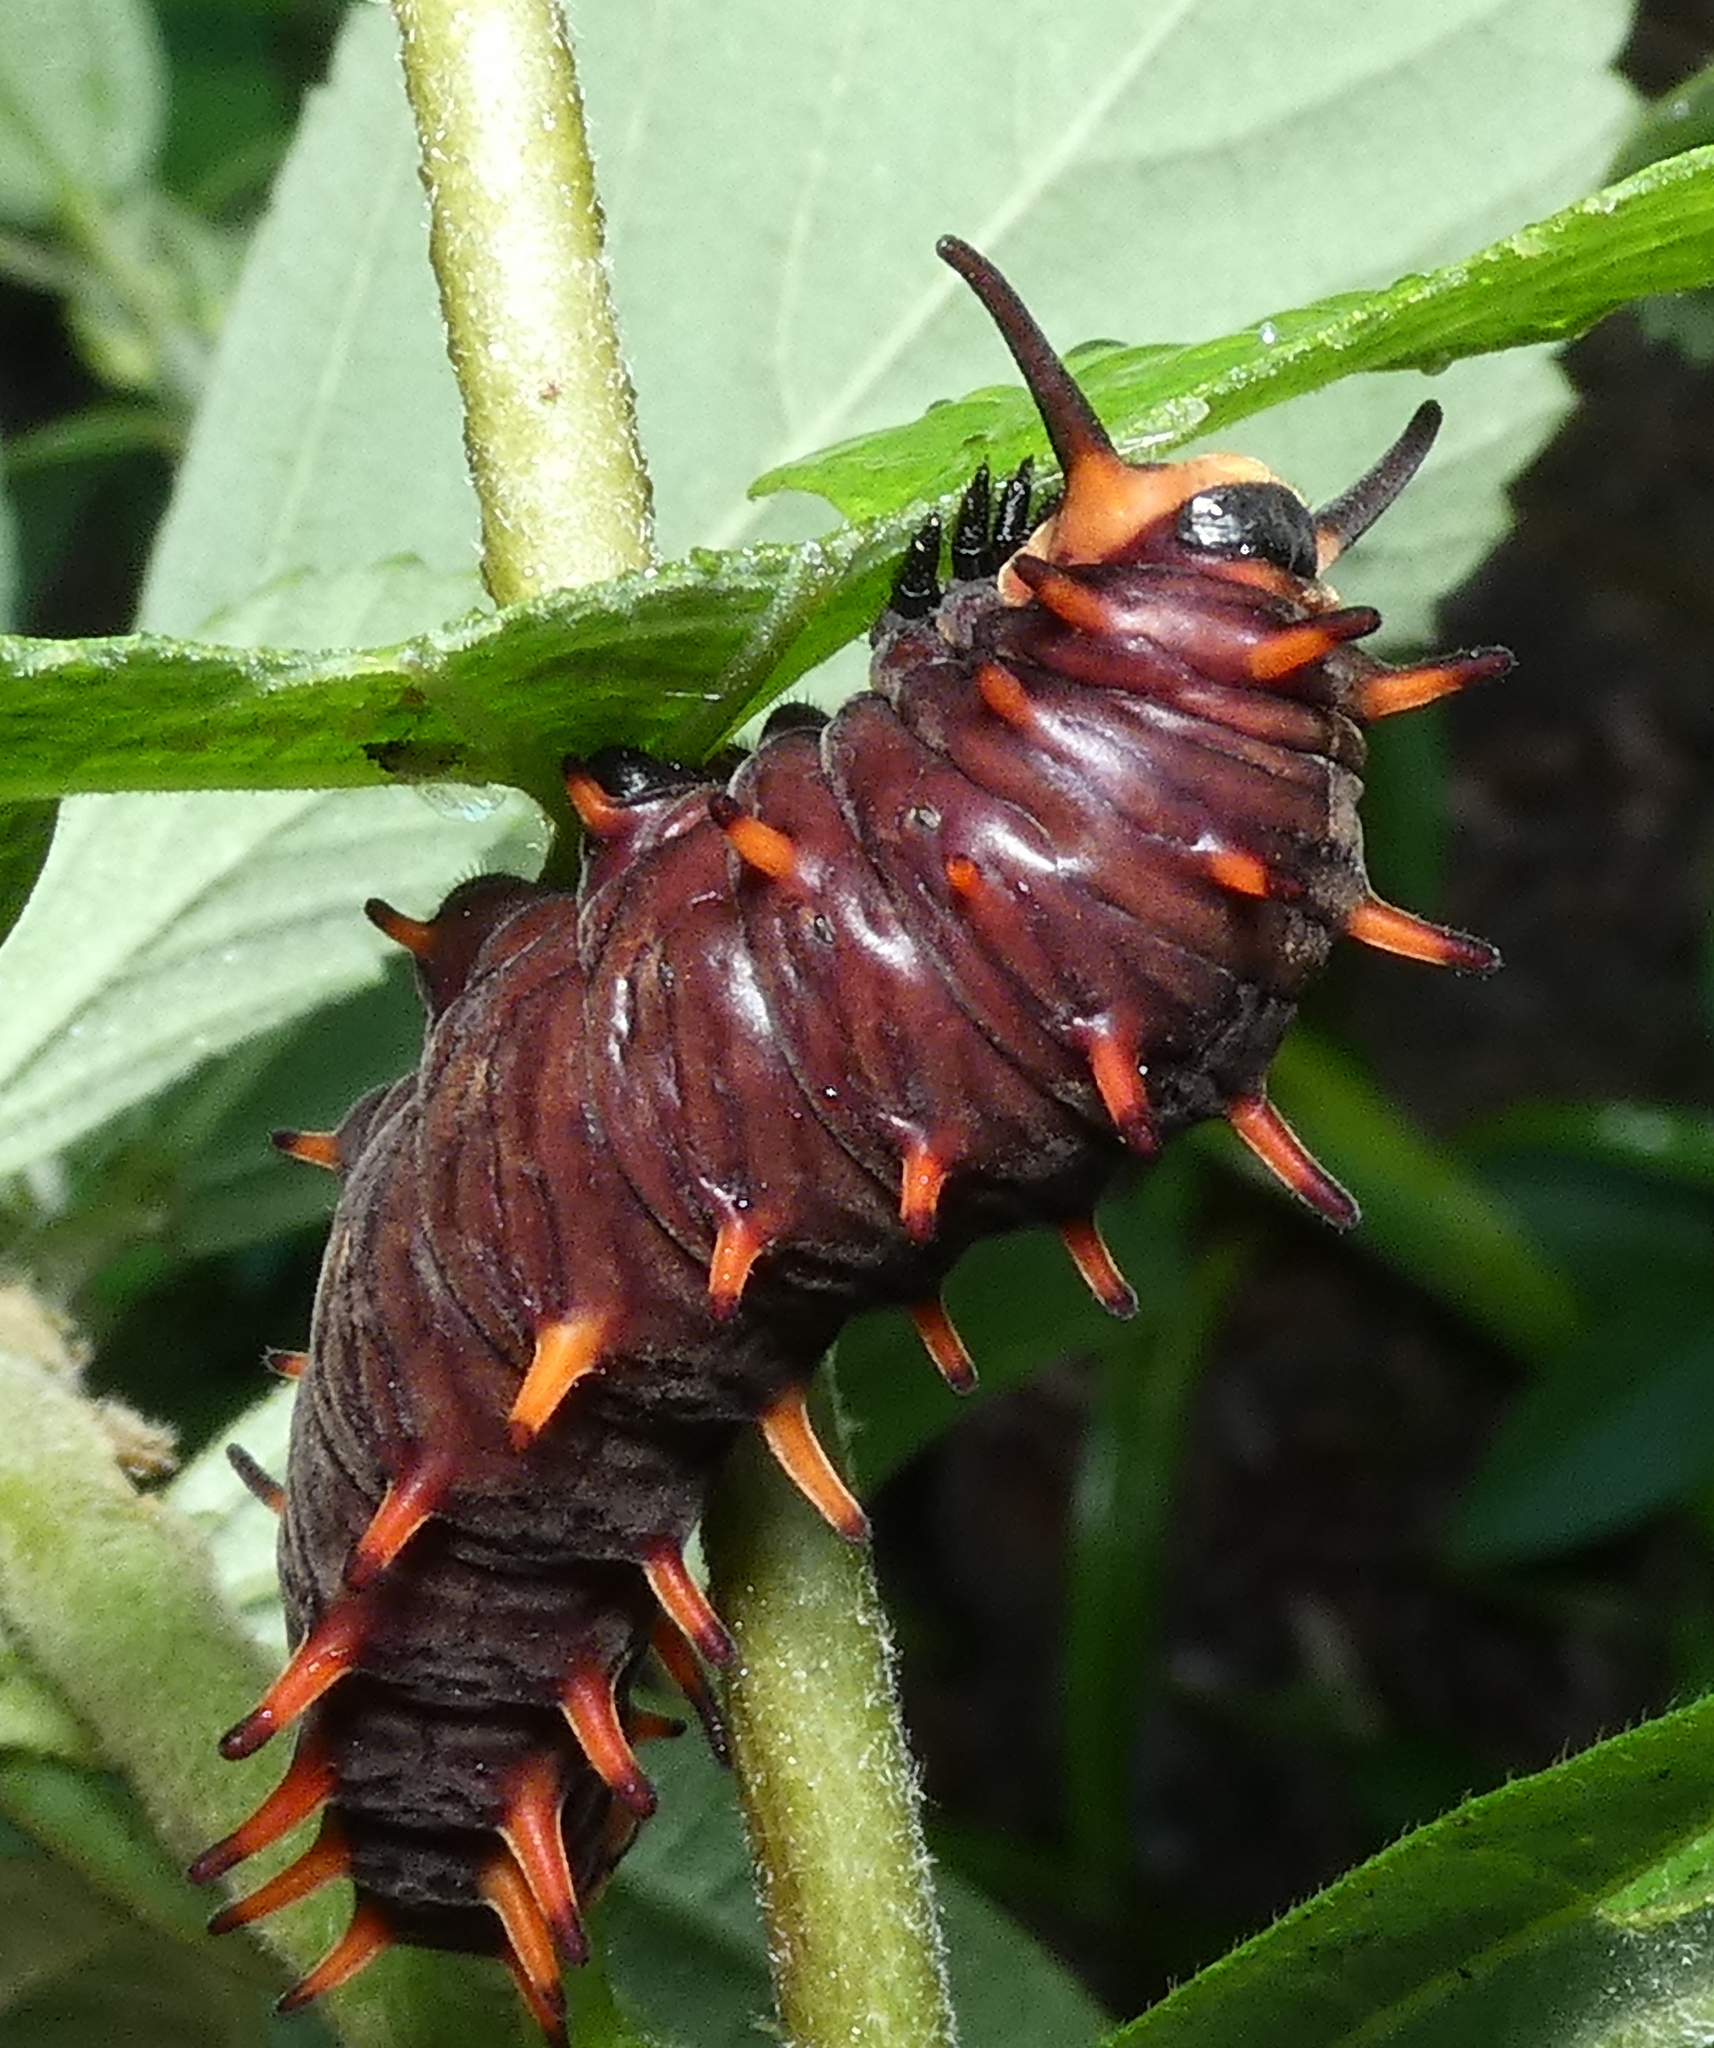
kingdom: Animalia
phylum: Arthropoda
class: Insecta
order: Lepidoptera
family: Papilionidae
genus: Battus
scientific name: Battus polydamas
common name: Polydamas swallowtail
